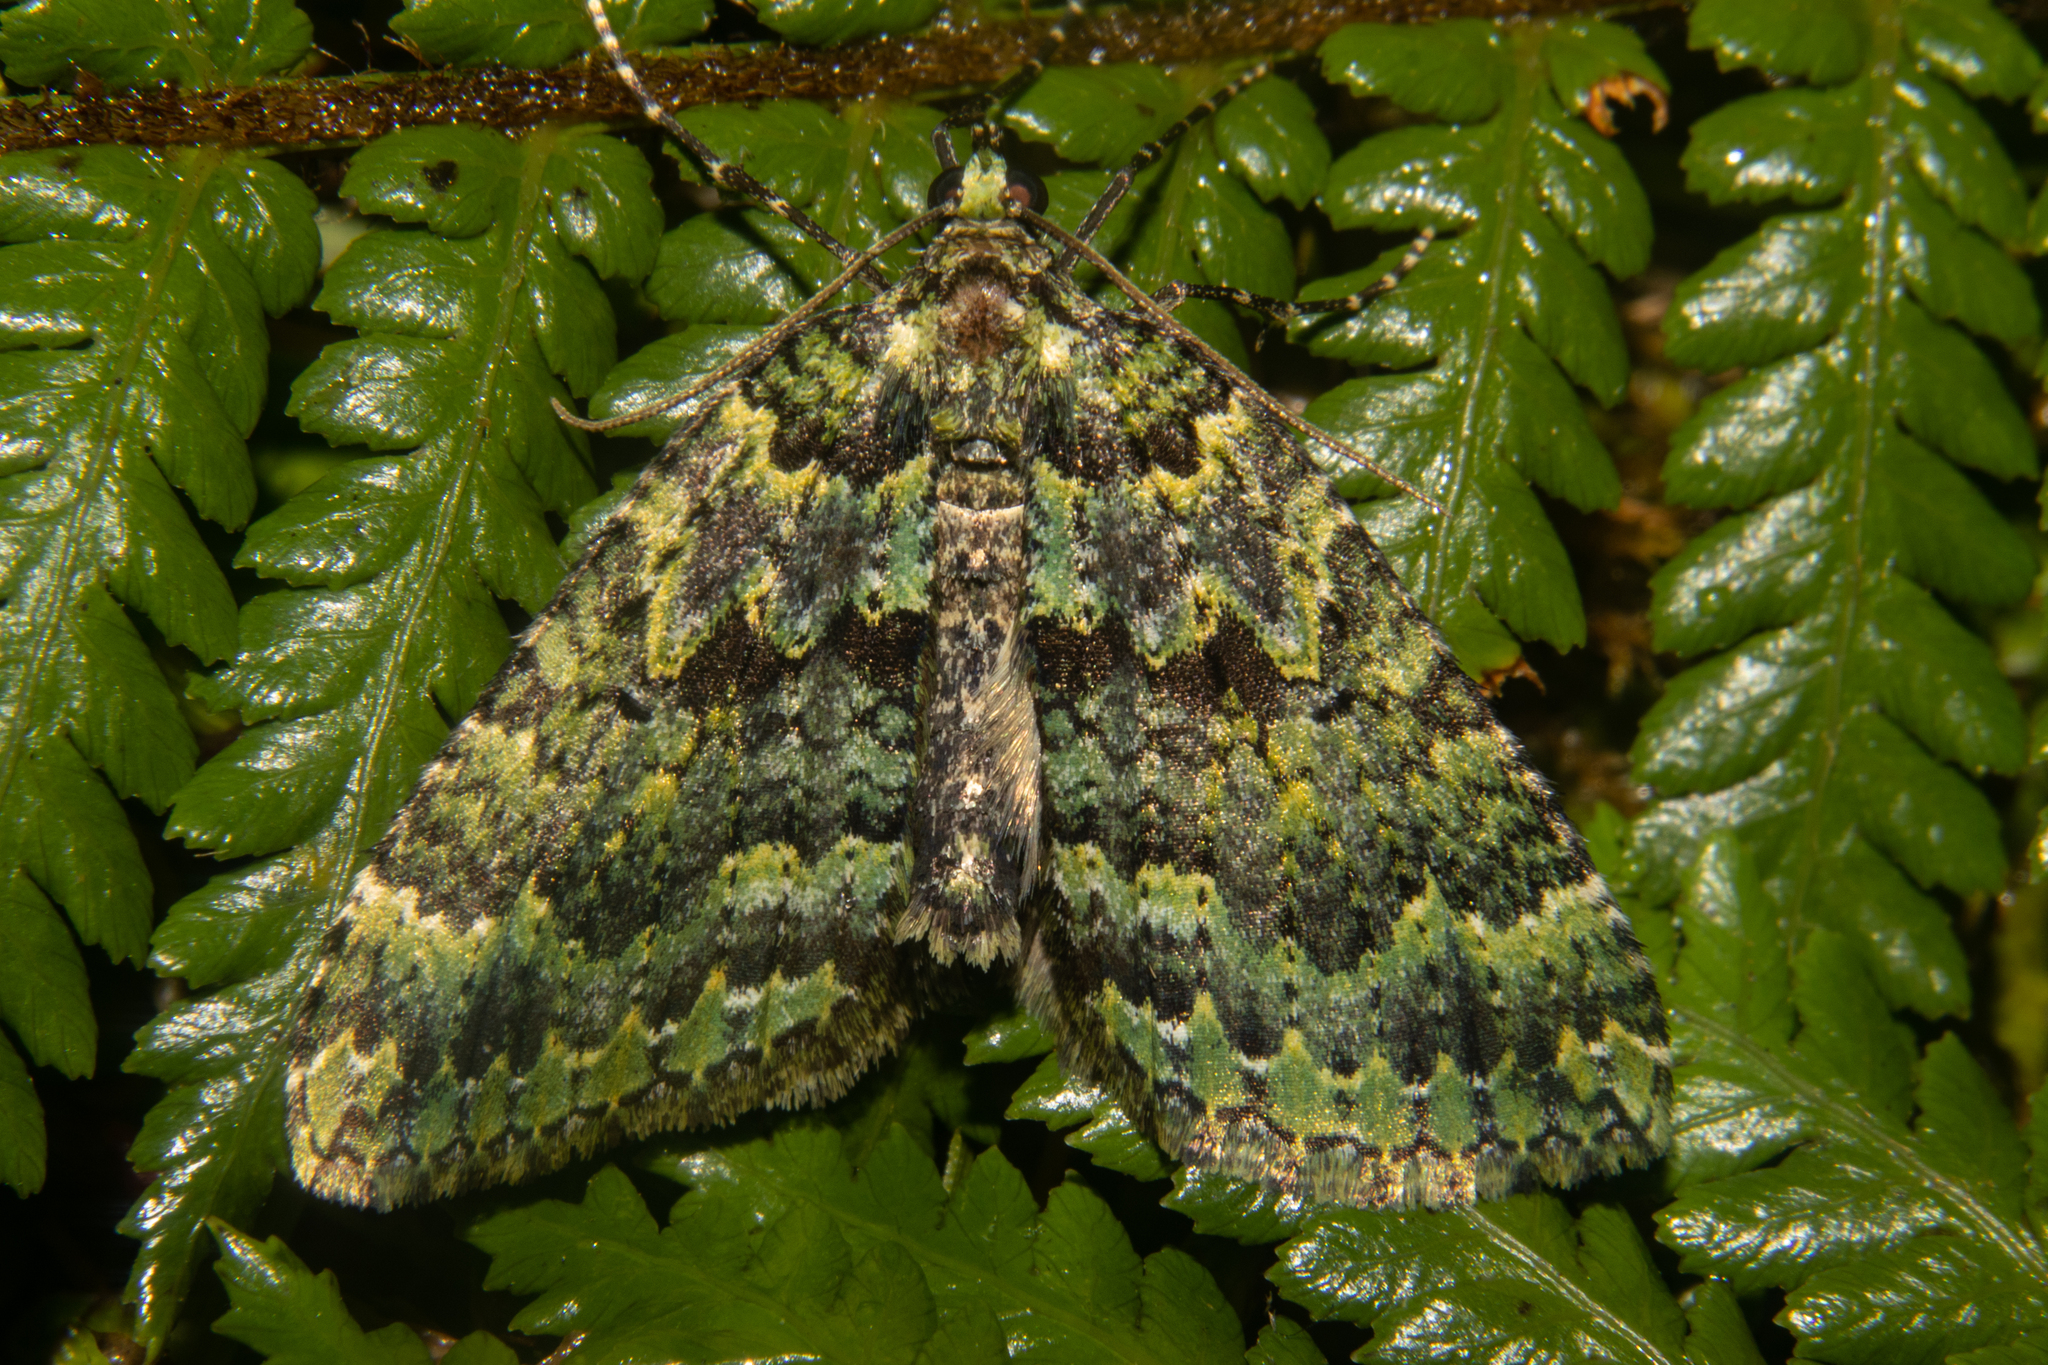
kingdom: Animalia
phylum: Arthropoda
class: Insecta
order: Lepidoptera
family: Geometridae
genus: Austrocidaria
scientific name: Austrocidaria callichlora
